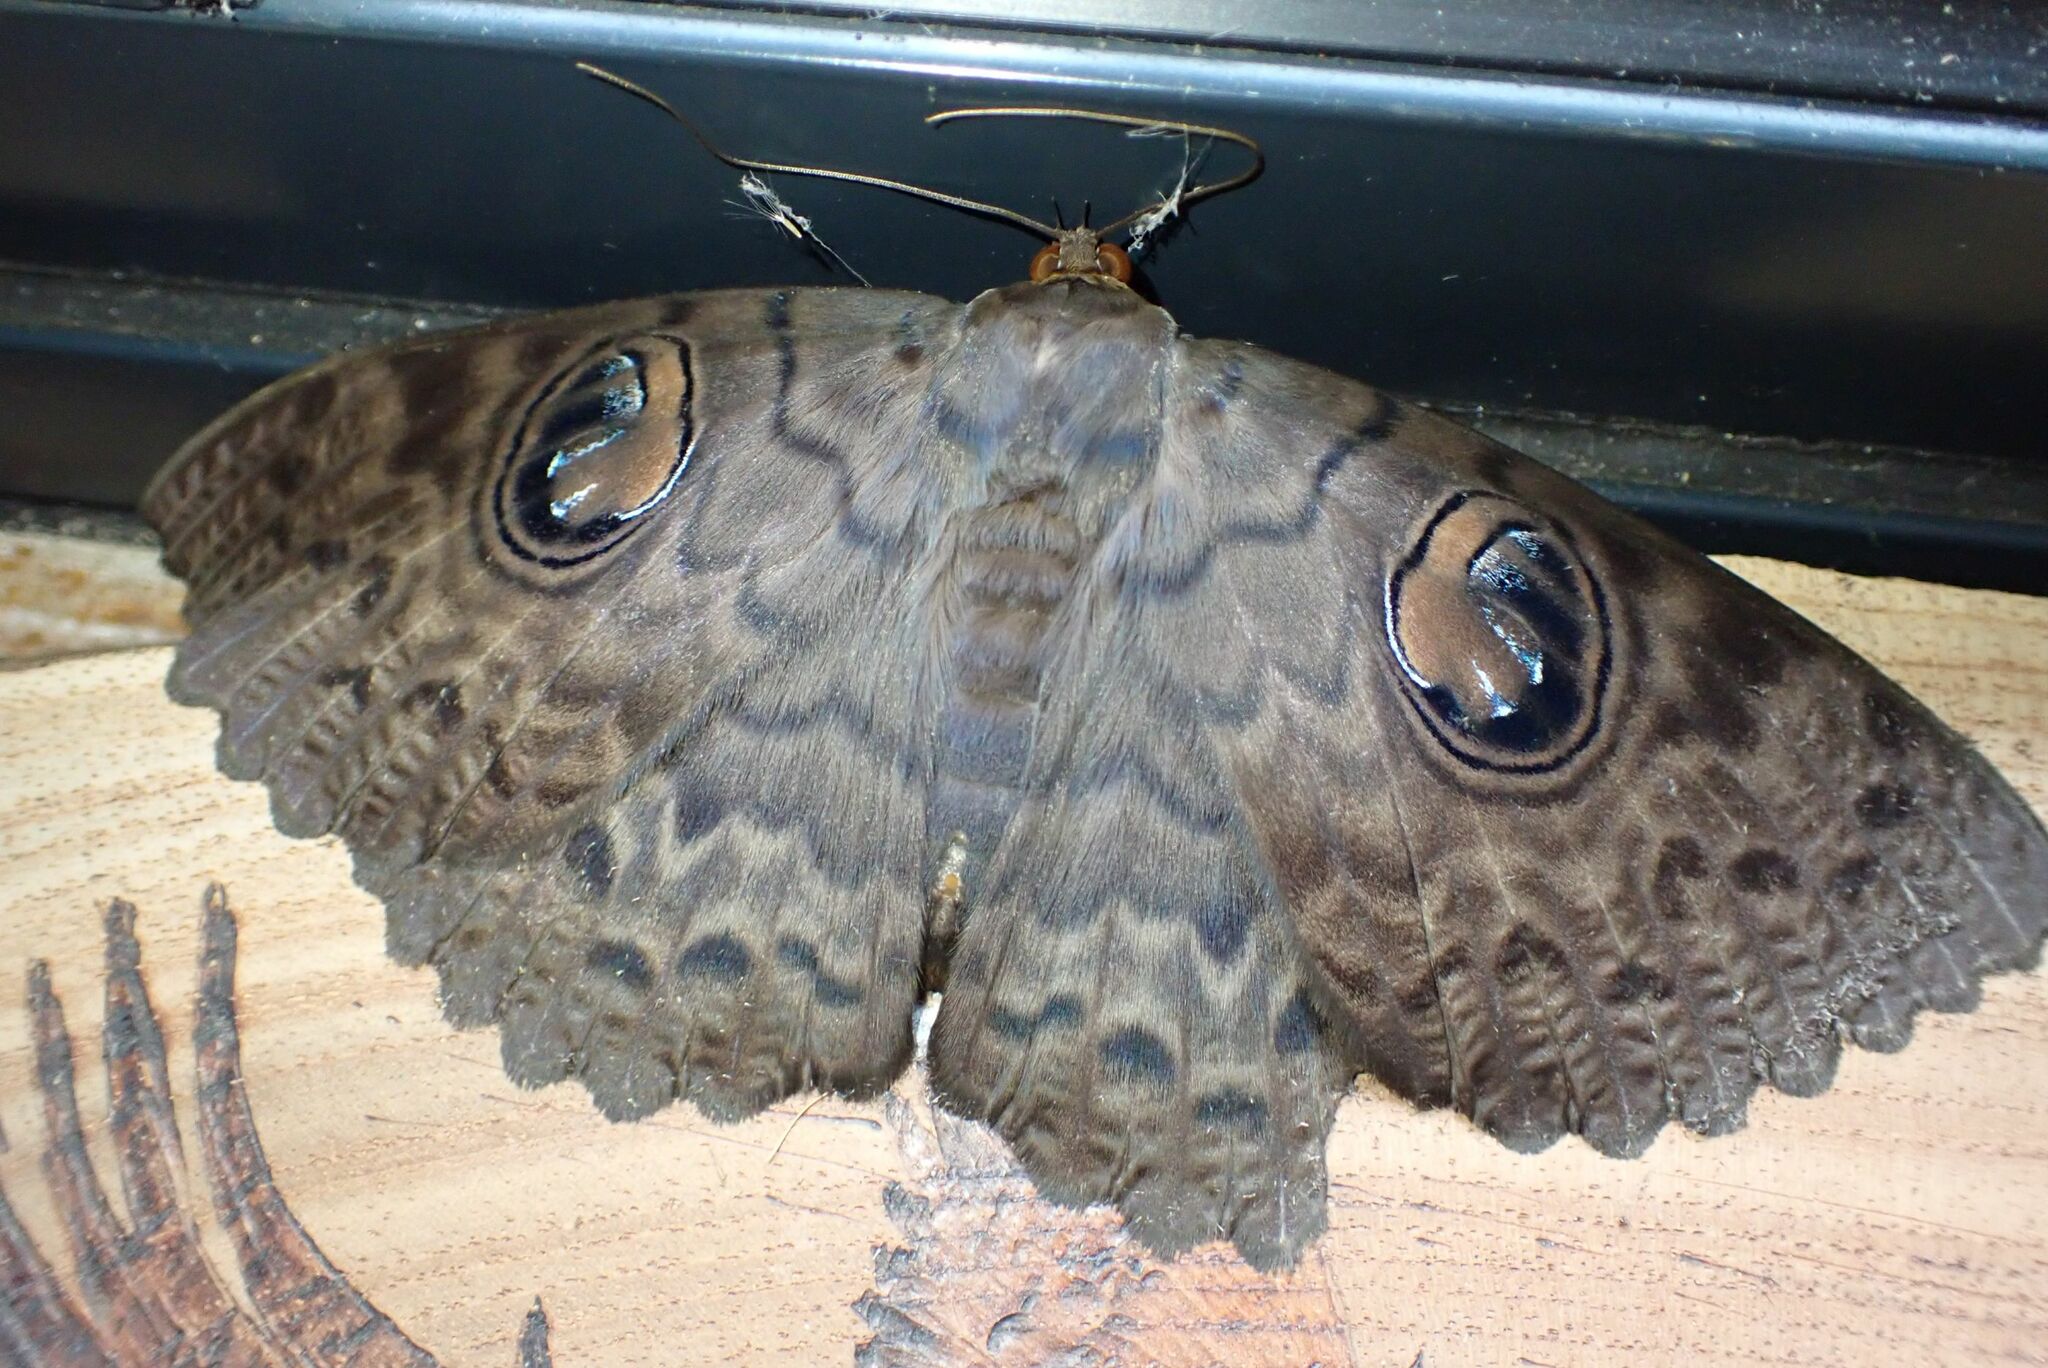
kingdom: Animalia
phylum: Arthropoda
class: Insecta
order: Lepidoptera
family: Erebidae
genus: Erebus
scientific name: Erebus walkeri
